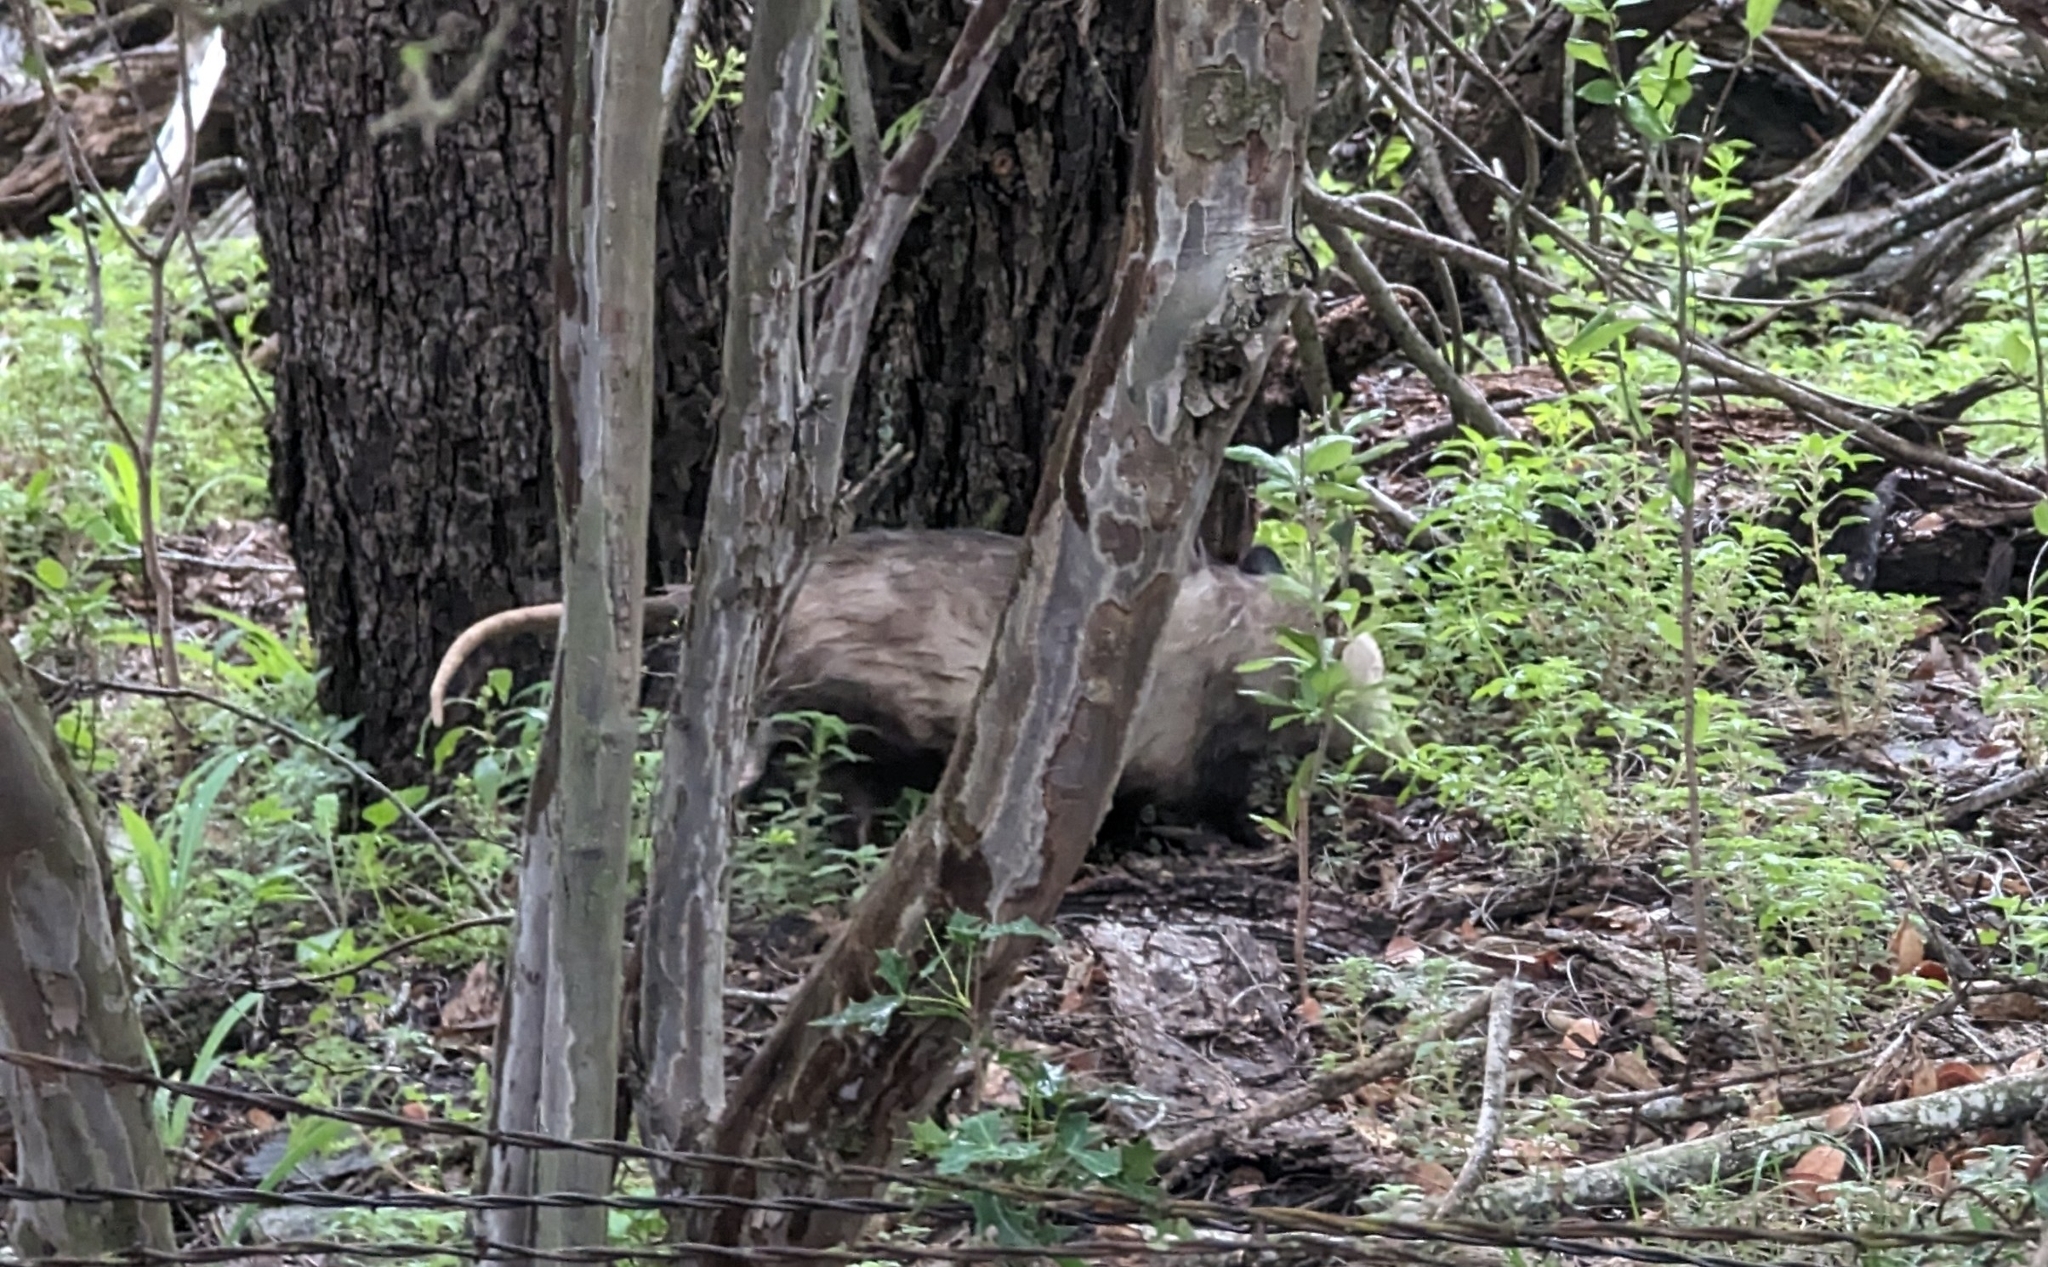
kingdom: Animalia
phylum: Chordata
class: Mammalia
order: Didelphimorphia
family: Didelphidae
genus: Didelphis
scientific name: Didelphis virginiana
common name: Virginia opossum
